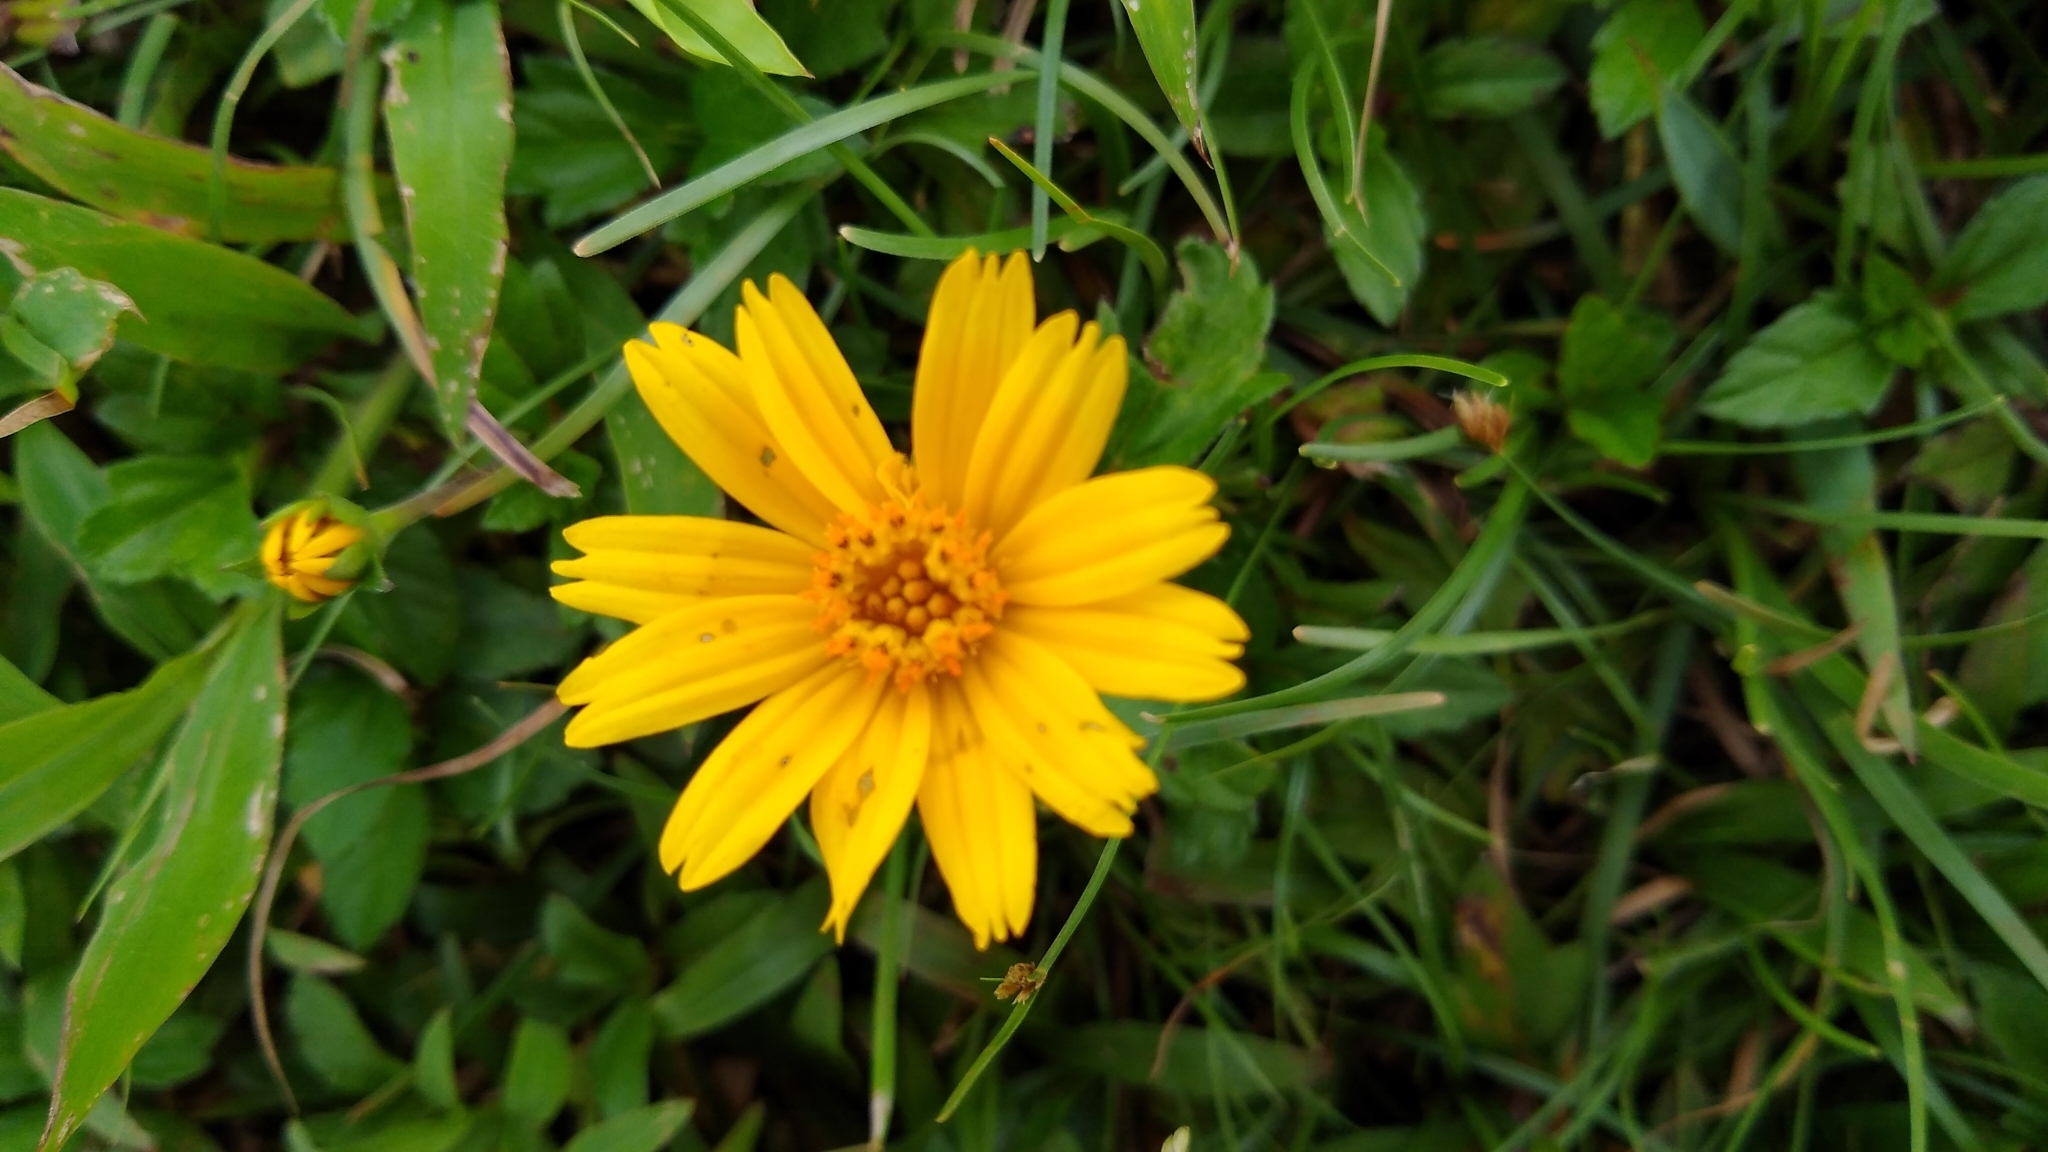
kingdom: Plantae
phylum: Tracheophyta
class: Magnoliopsida
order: Asterales
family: Asteraceae
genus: Sphagneticola
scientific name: Sphagneticola trilobata
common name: Bay biscayne creeping-oxeye
